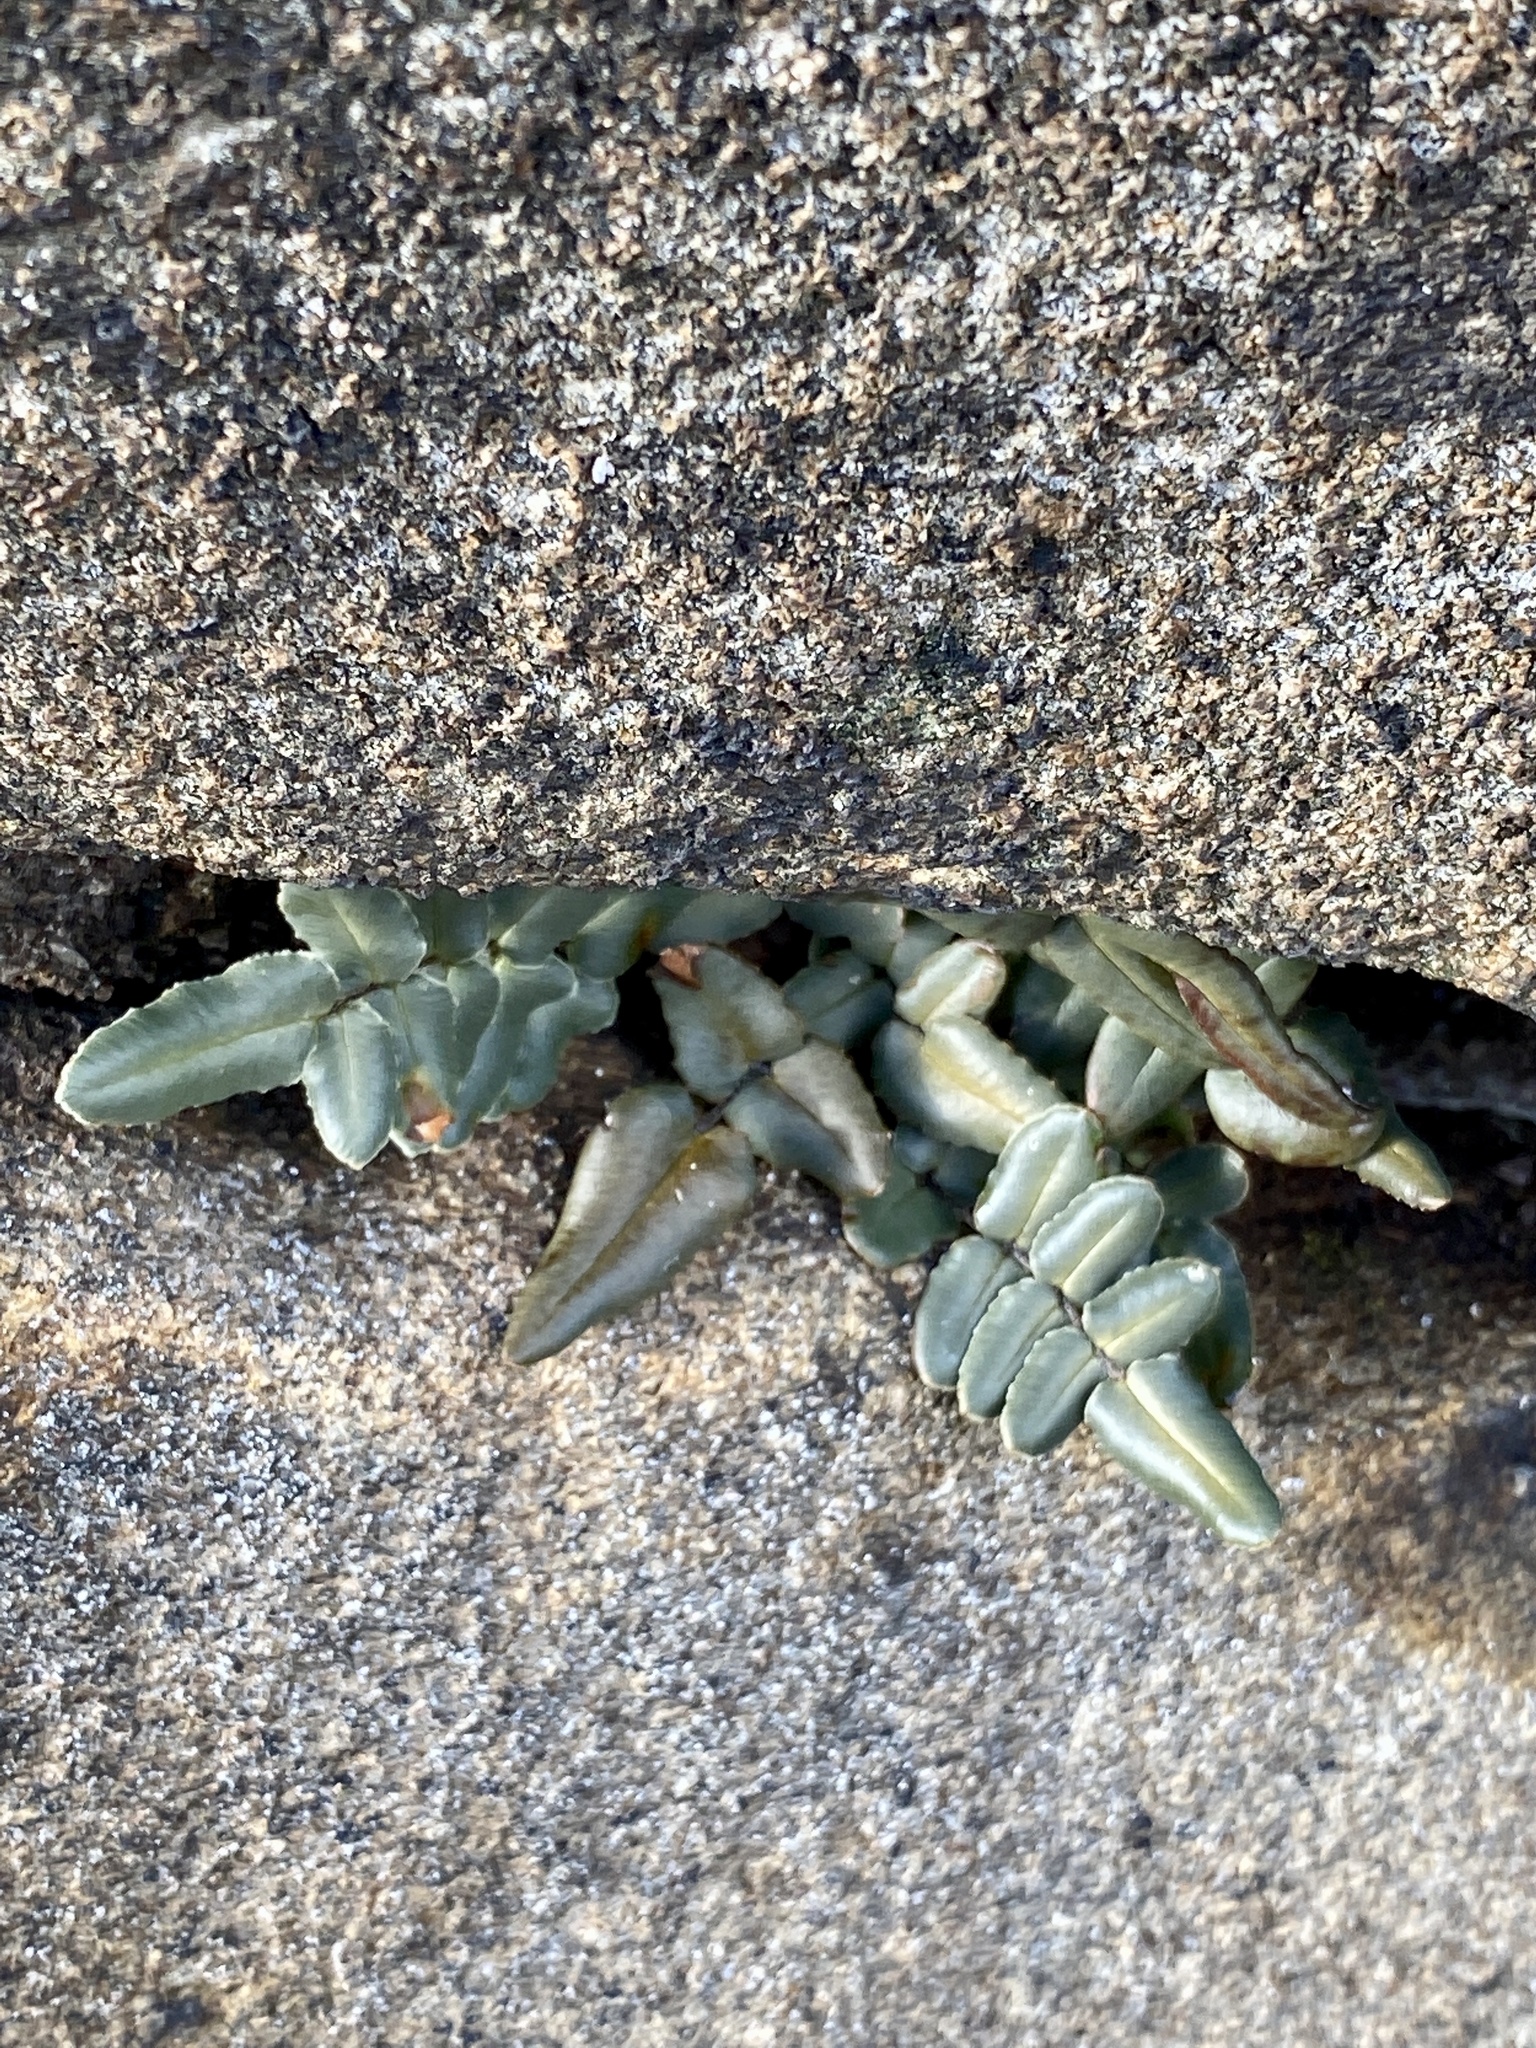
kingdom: Plantae
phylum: Tracheophyta
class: Polypodiopsida
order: Polypodiales
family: Pteridaceae
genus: Pellaea
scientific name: Pellaea atropurpurea
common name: Hairy cliffbrake
